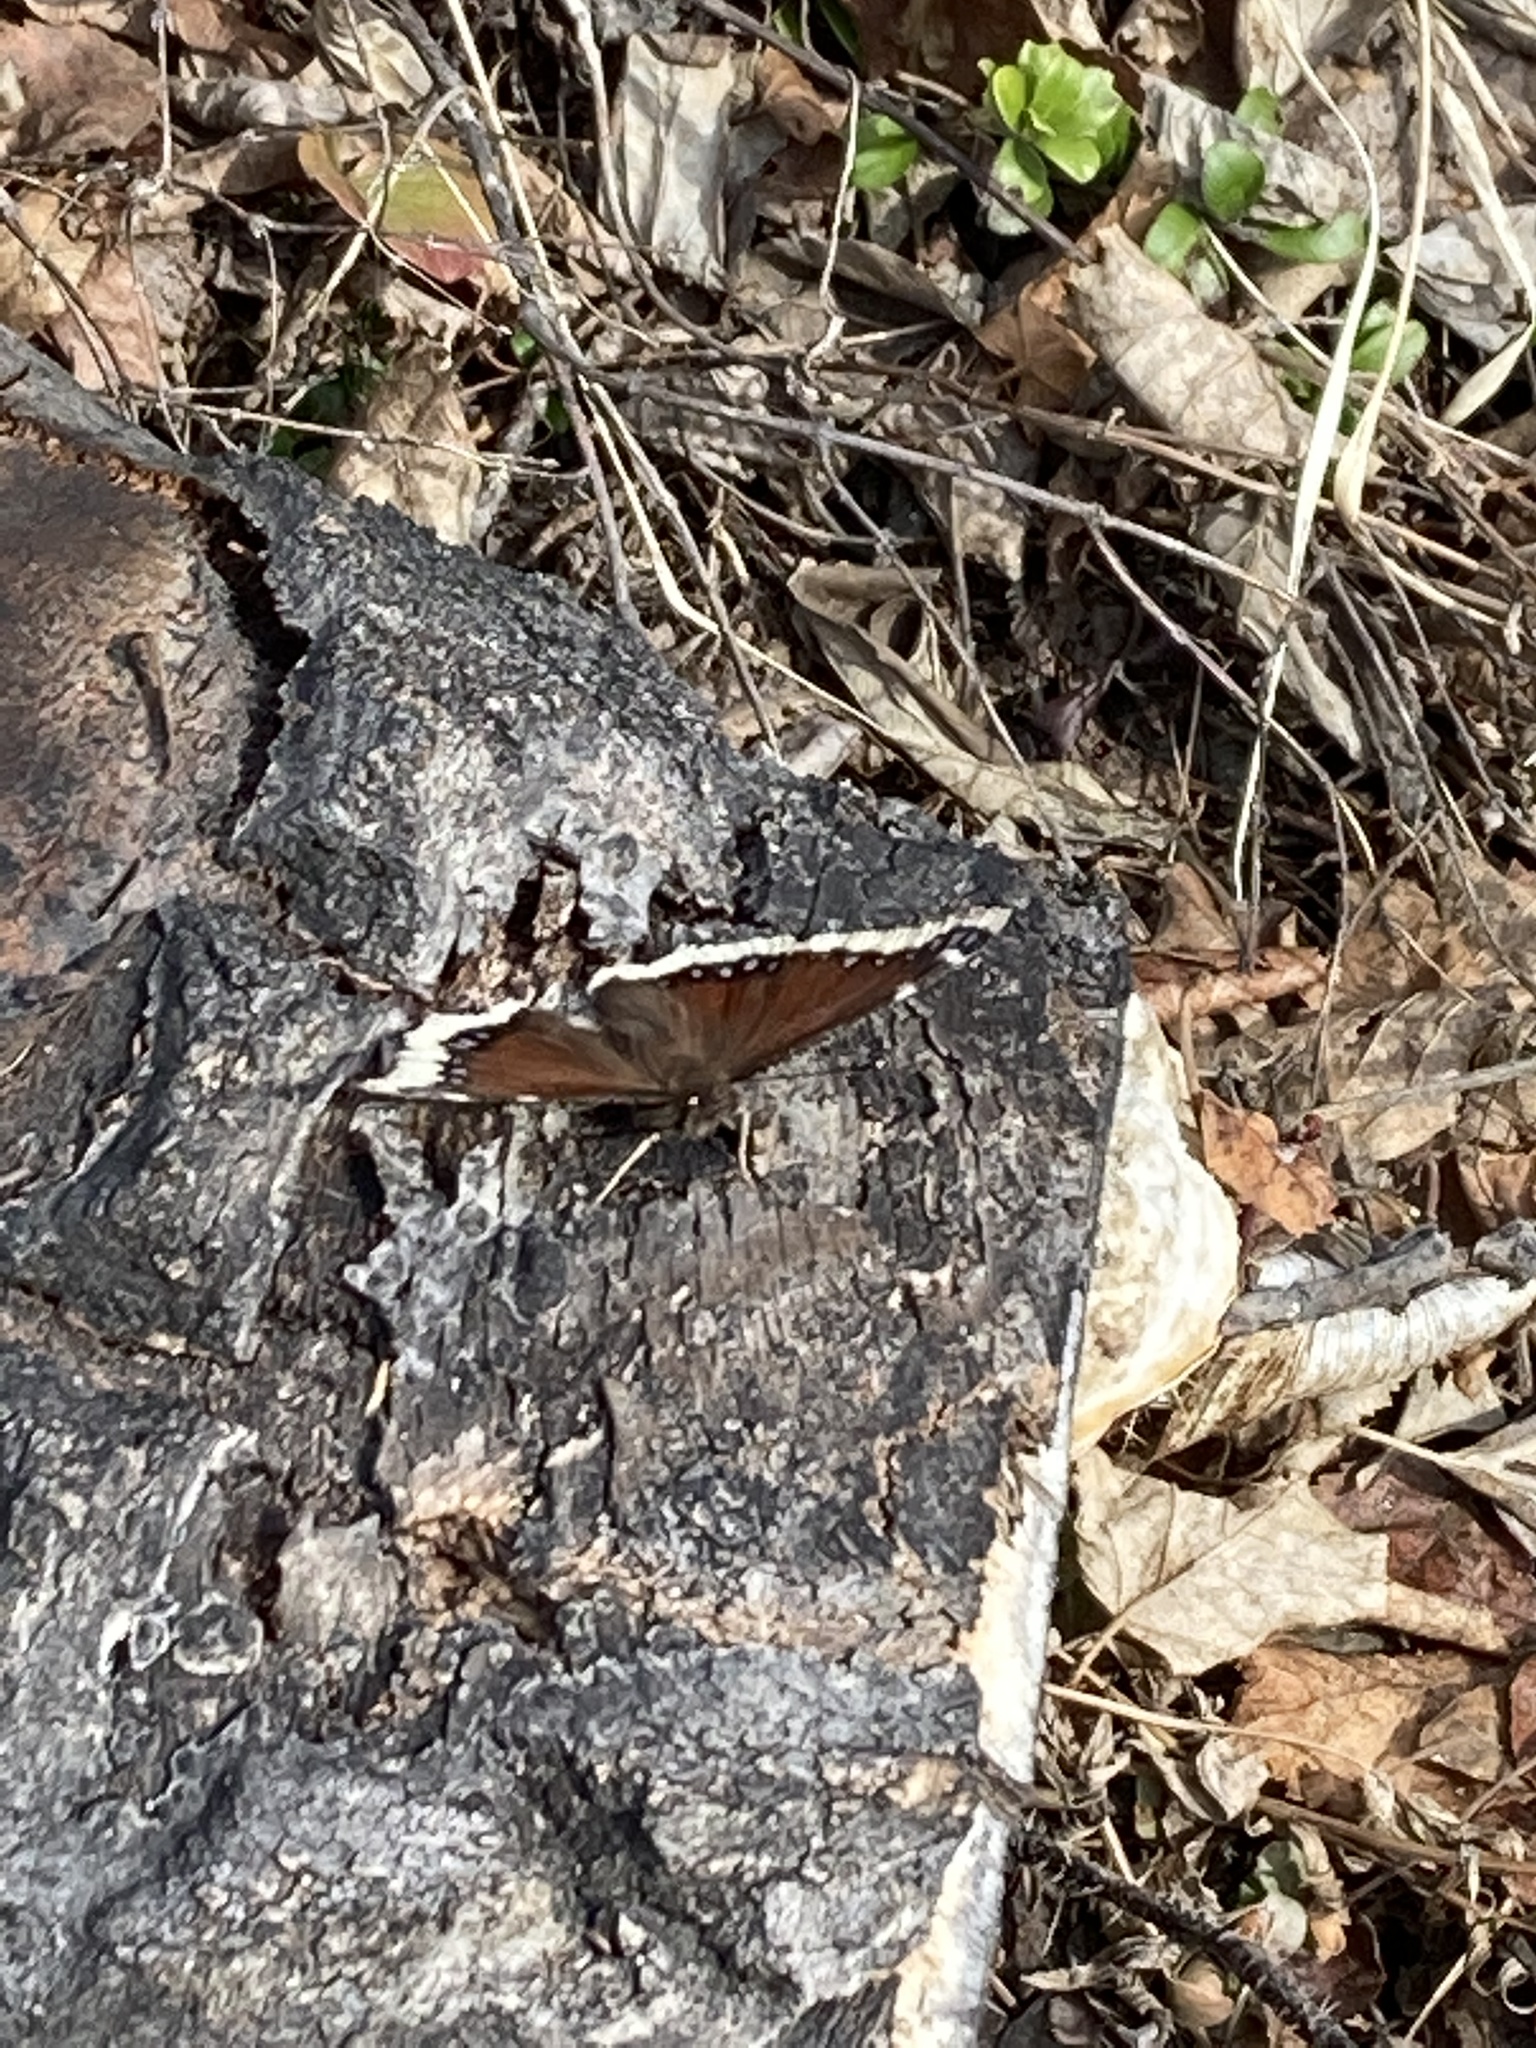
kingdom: Animalia
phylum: Arthropoda
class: Insecta
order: Lepidoptera
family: Nymphalidae
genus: Nymphalis
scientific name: Nymphalis antiopa
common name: Camberwell beauty
